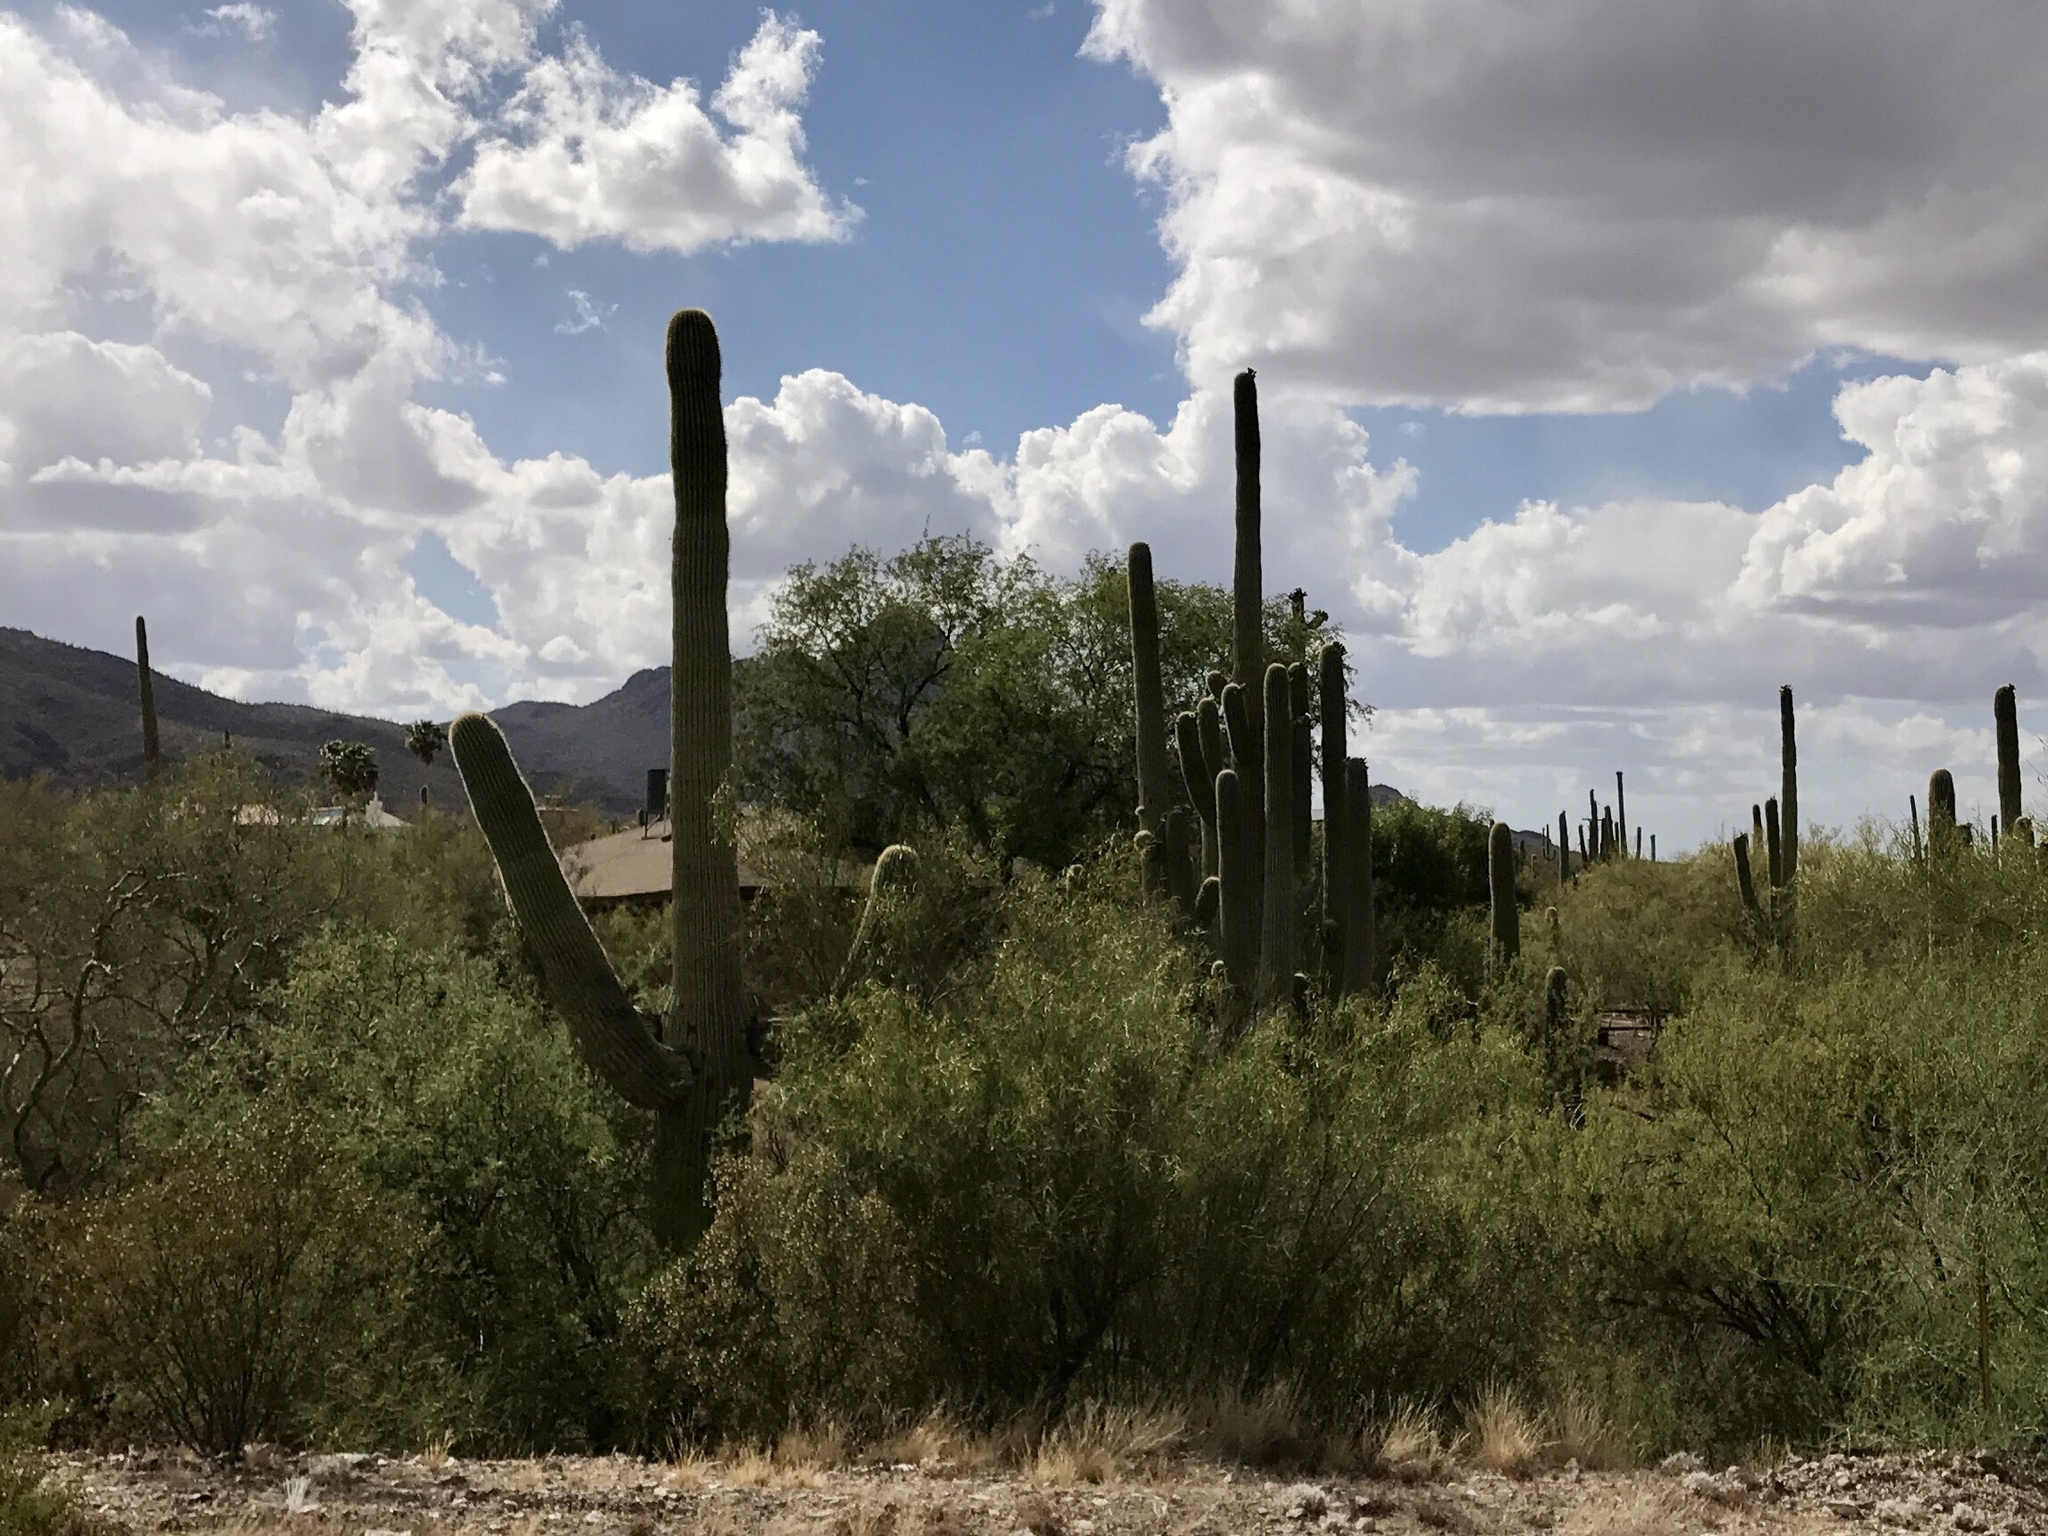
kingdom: Plantae
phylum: Tracheophyta
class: Magnoliopsida
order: Caryophyllales
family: Cactaceae
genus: Carnegiea
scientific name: Carnegiea gigantea
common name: Saguaro
